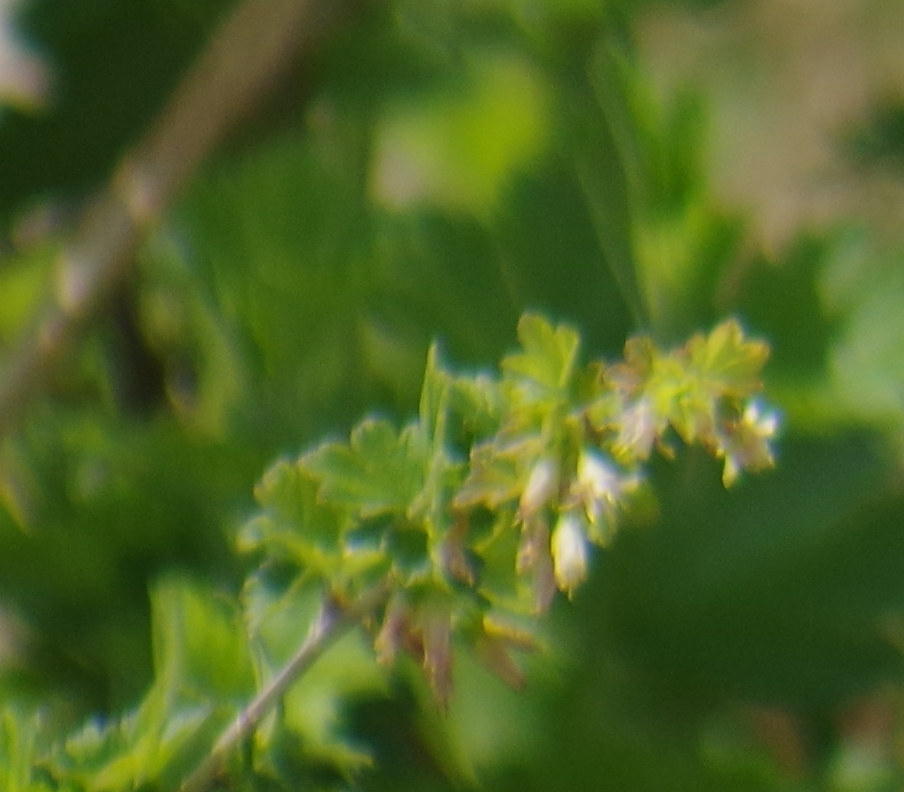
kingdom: Plantae
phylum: Tracheophyta
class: Magnoliopsida
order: Saxifragales
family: Grossulariaceae
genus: Ribes
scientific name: Ribes americanum
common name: American black currant
